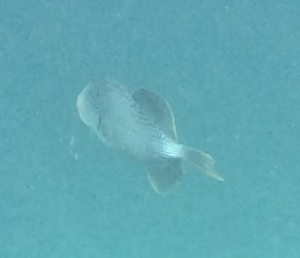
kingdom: Animalia
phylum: Chordata
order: Tetraodontiformes
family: Balistidae
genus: Pseudobalistes
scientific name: Pseudobalistes flavimarginatus
